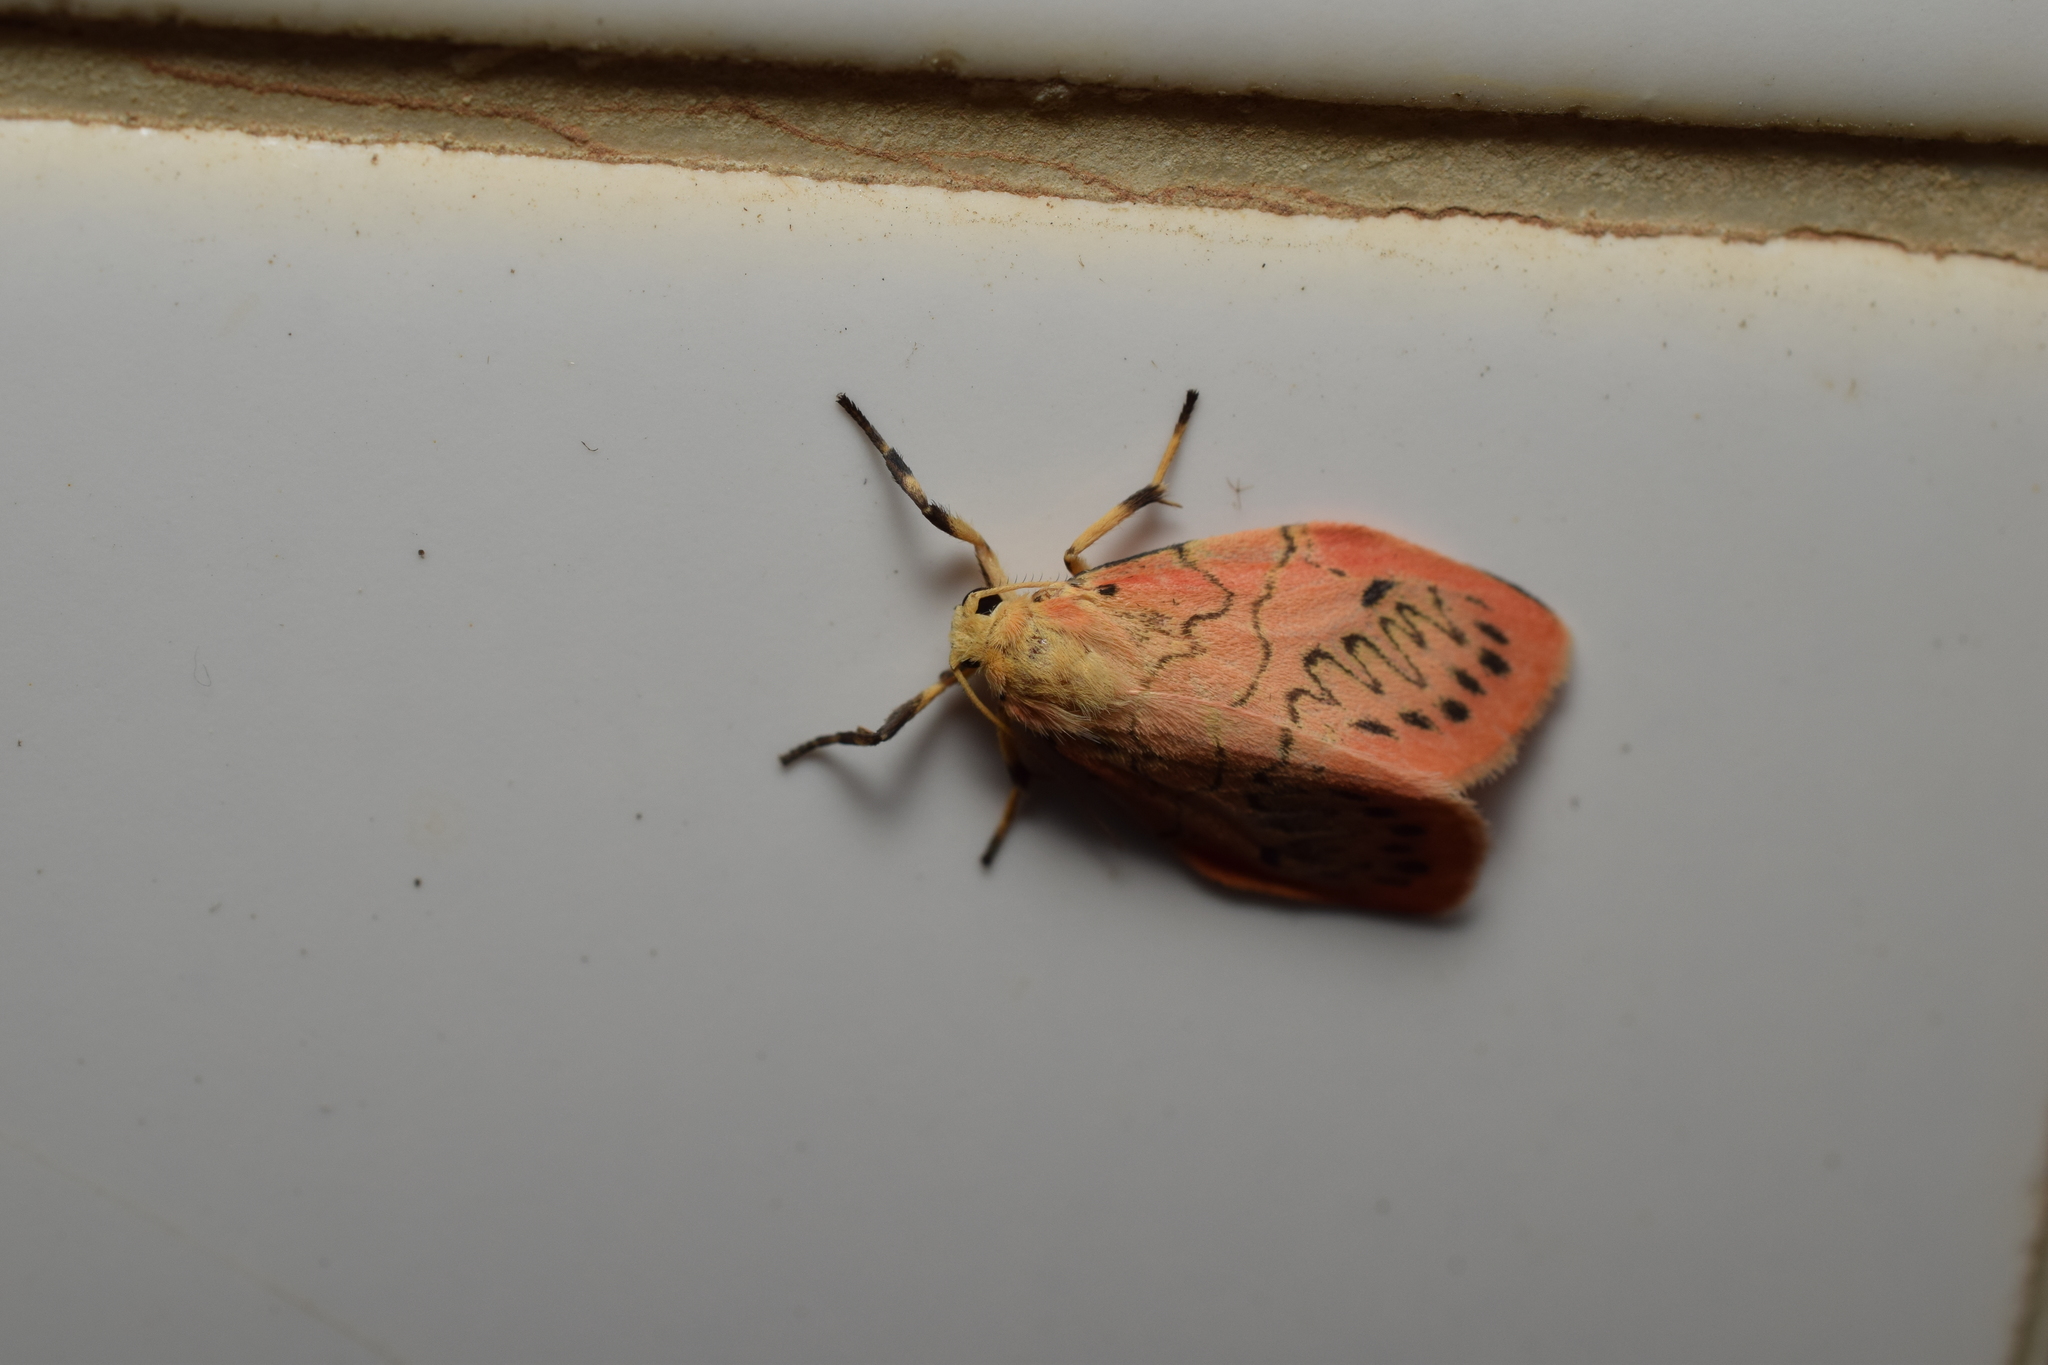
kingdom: Animalia
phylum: Arthropoda
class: Insecta
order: Lepidoptera
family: Erebidae
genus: Miltochrista
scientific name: Miltochrista miniata
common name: Rosy footman
